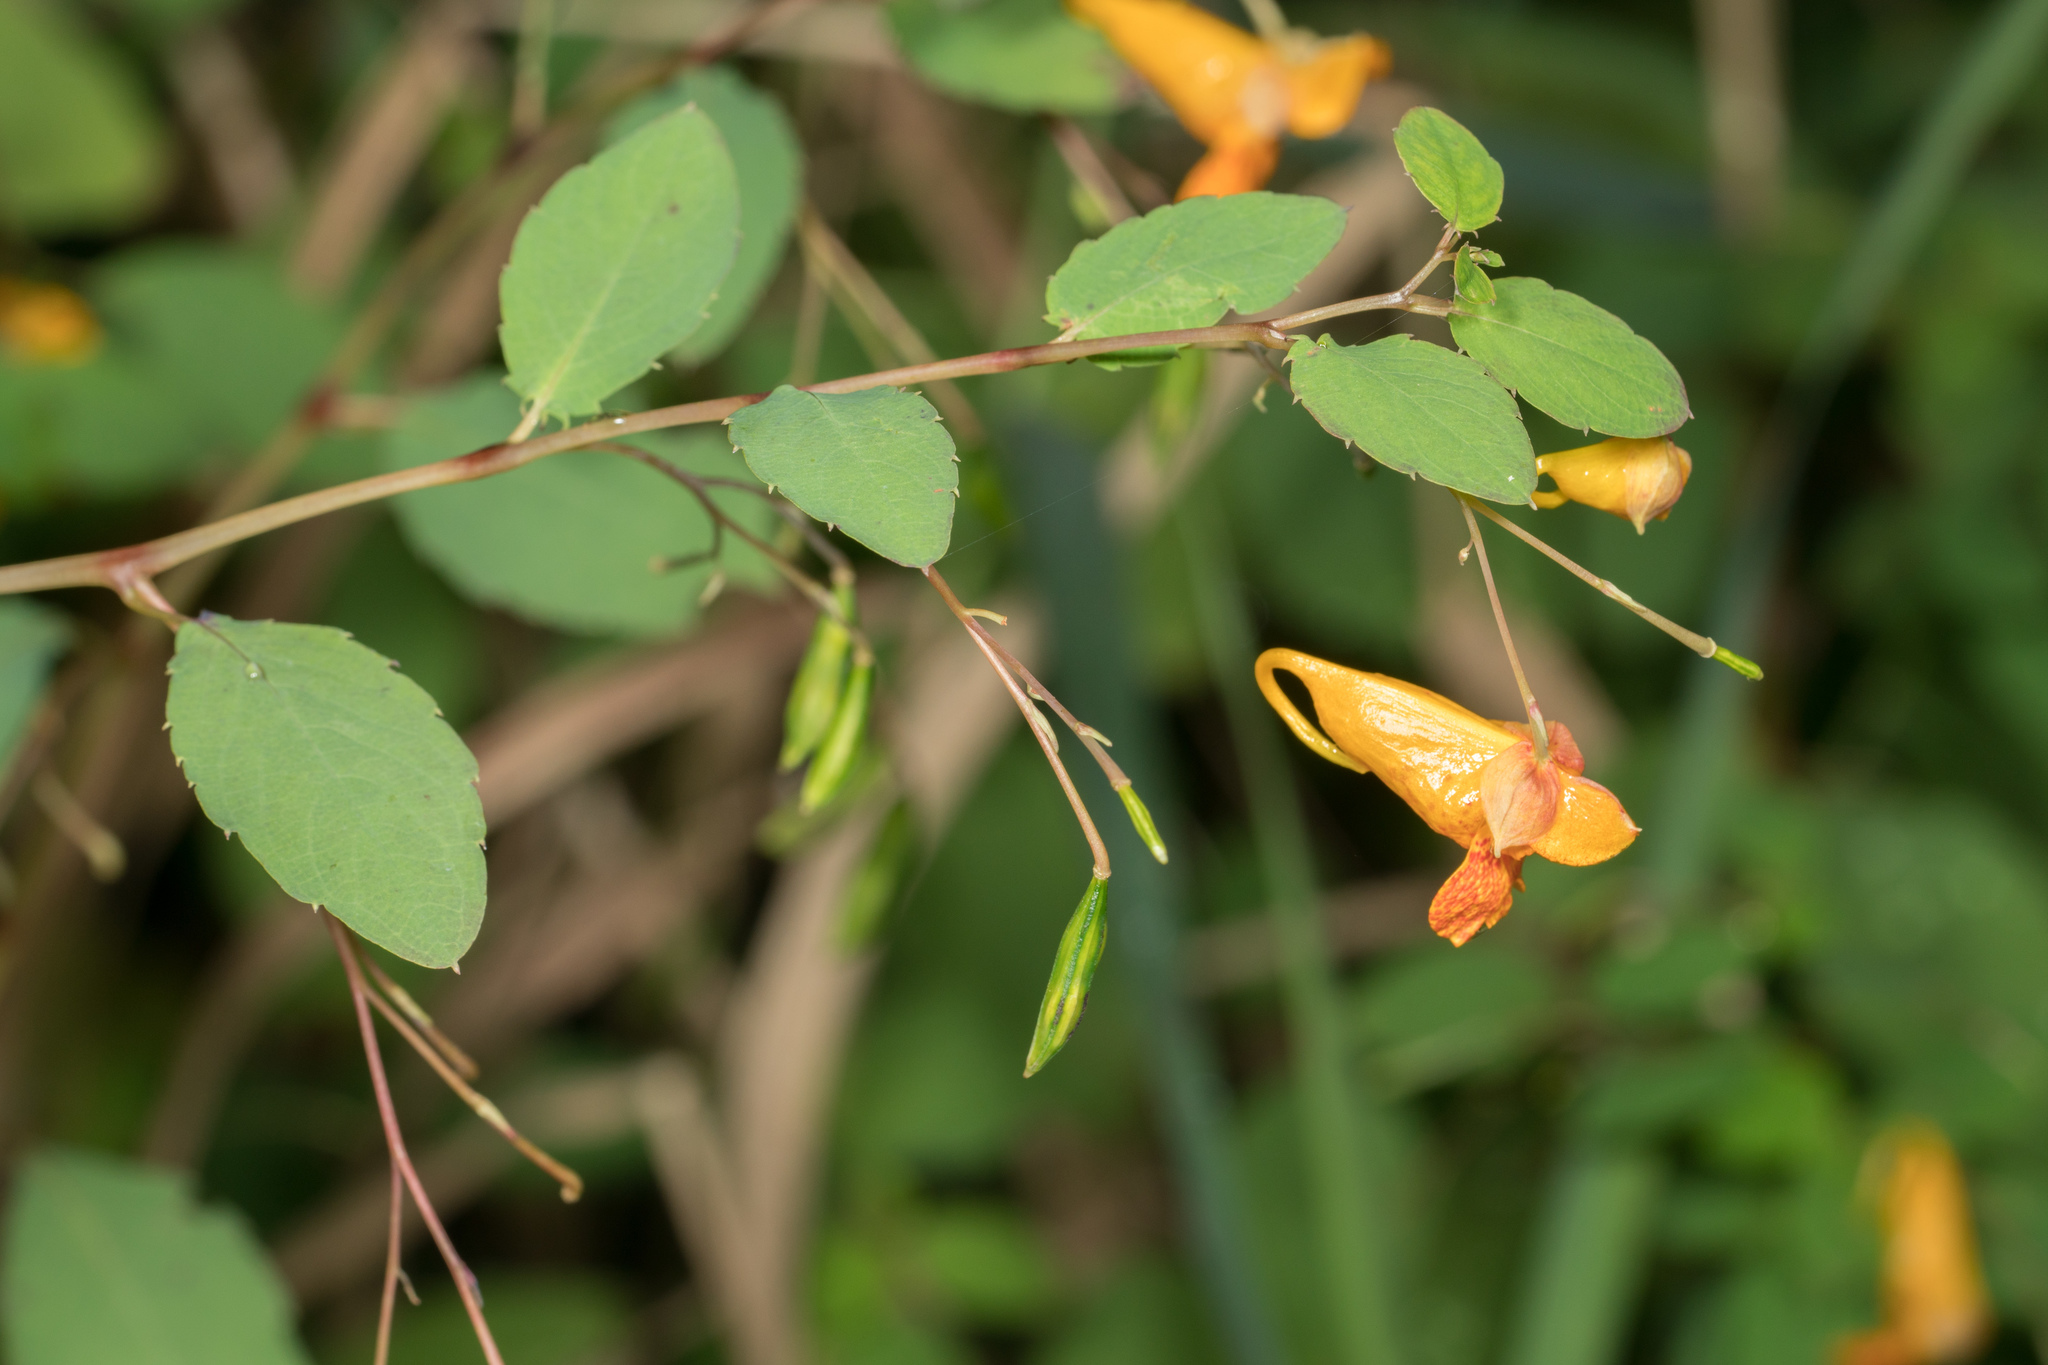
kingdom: Plantae
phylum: Tracheophyta
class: Magnoliopsida
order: Ericales
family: Balsaminaceae
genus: Impatiens
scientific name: Impatiens capensis
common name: Orange balsam
